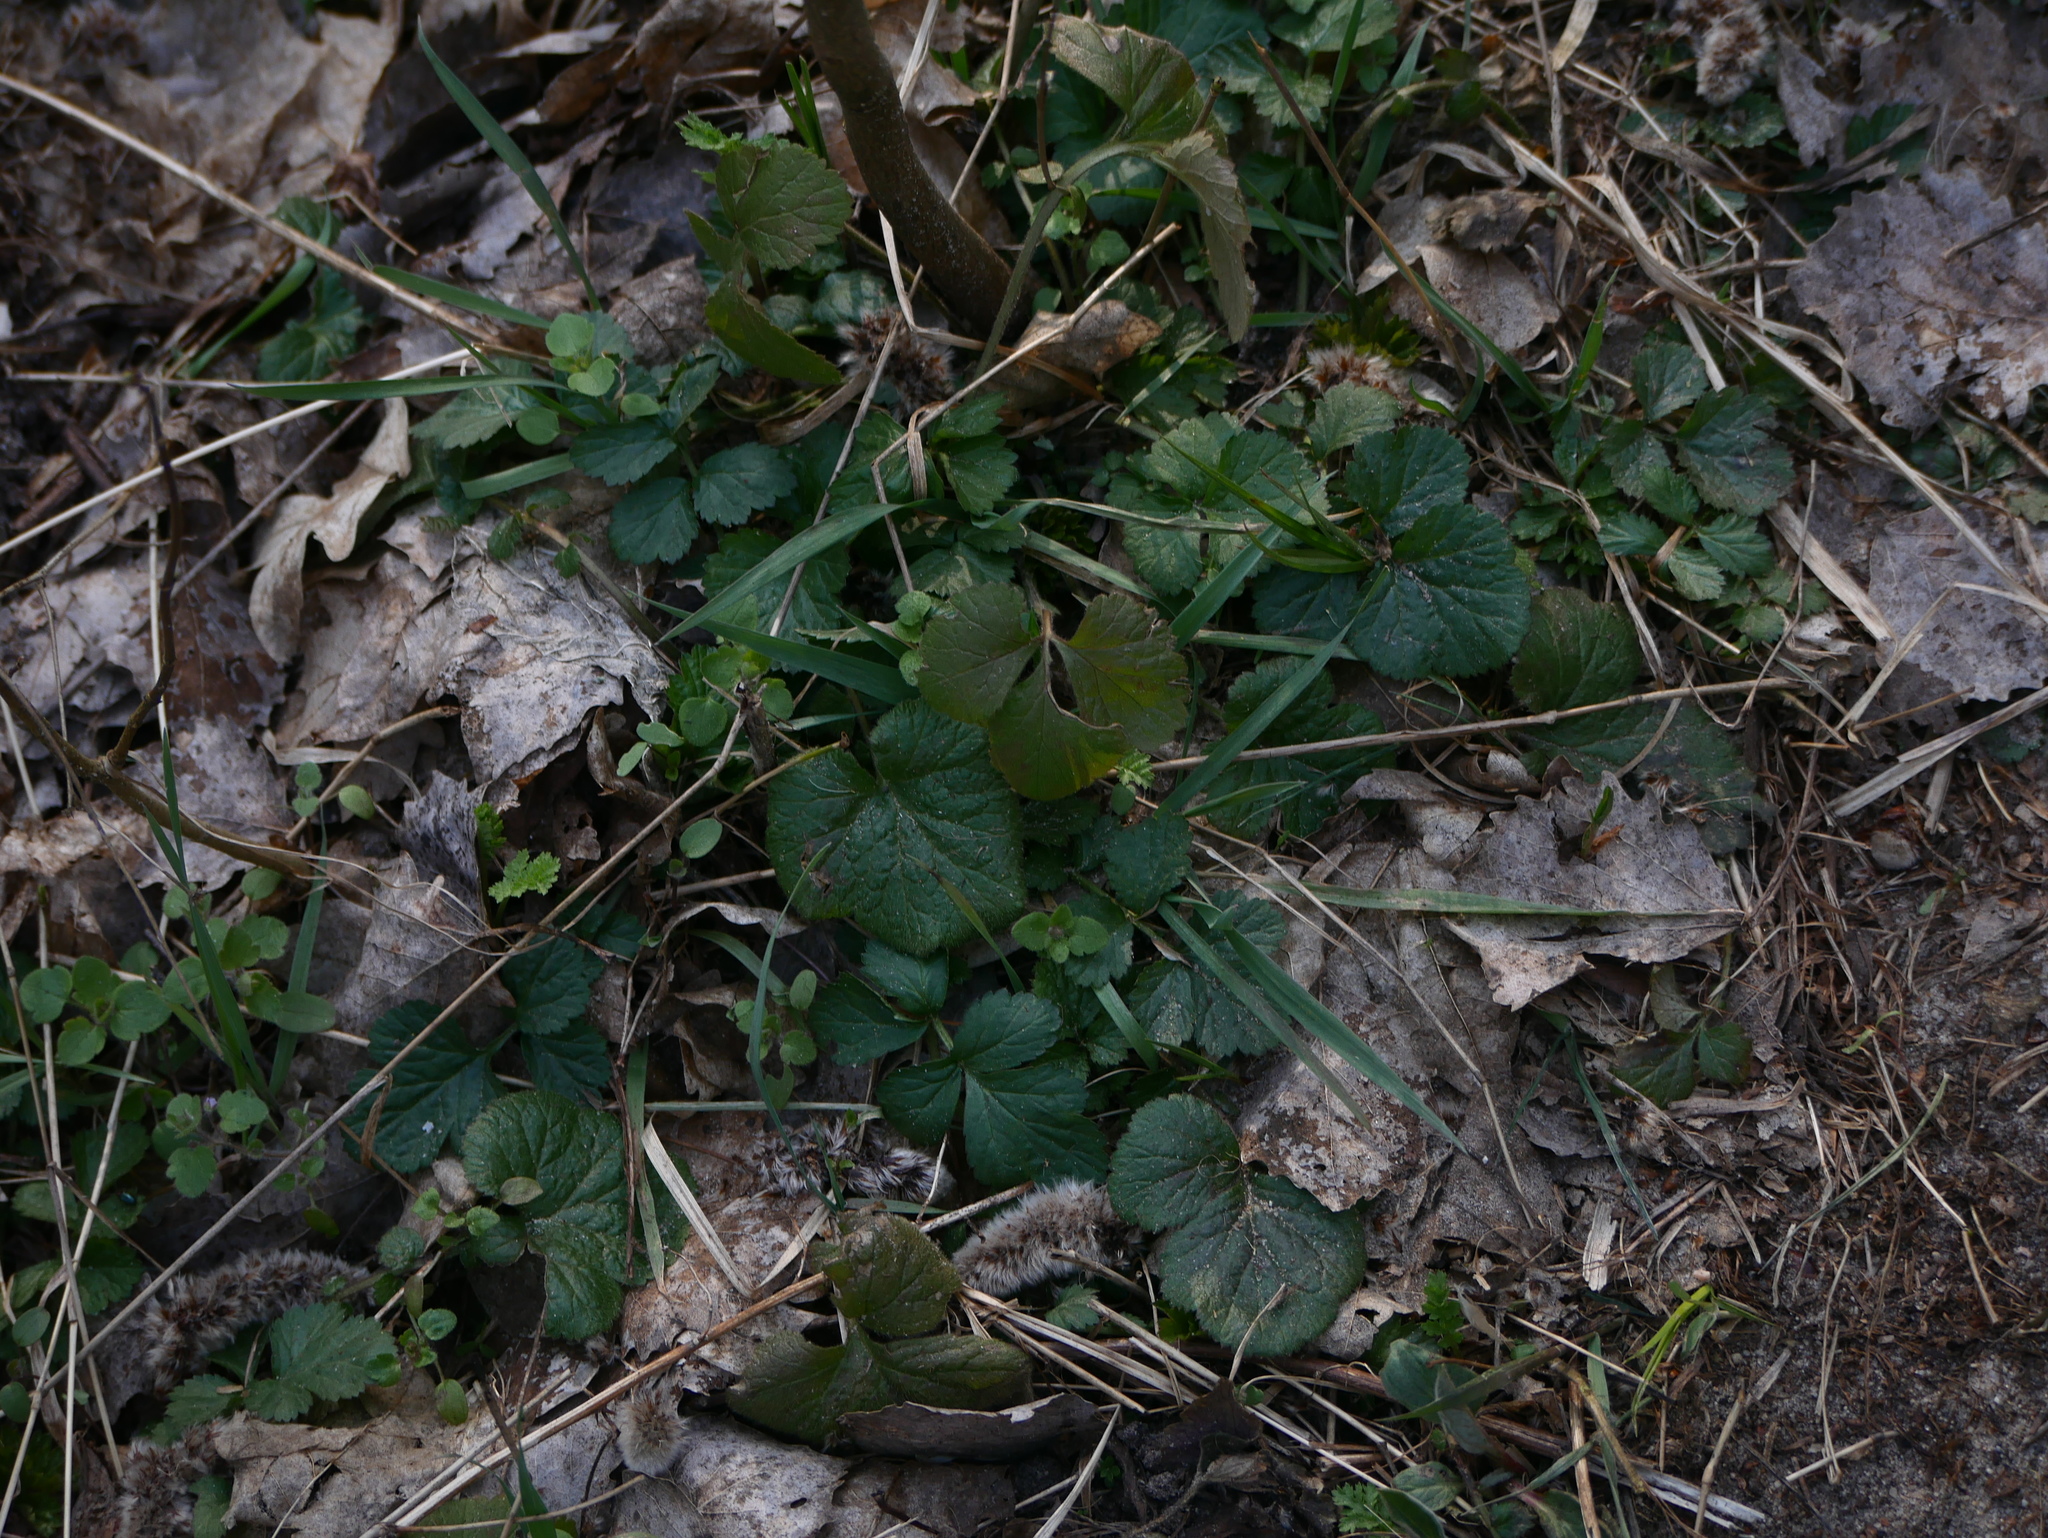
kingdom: Plantae
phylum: Tracheophyta
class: Magnoliopsida
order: Rosales
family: Rosaceae
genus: Geum
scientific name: Geum urbanum
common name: Wood avens
